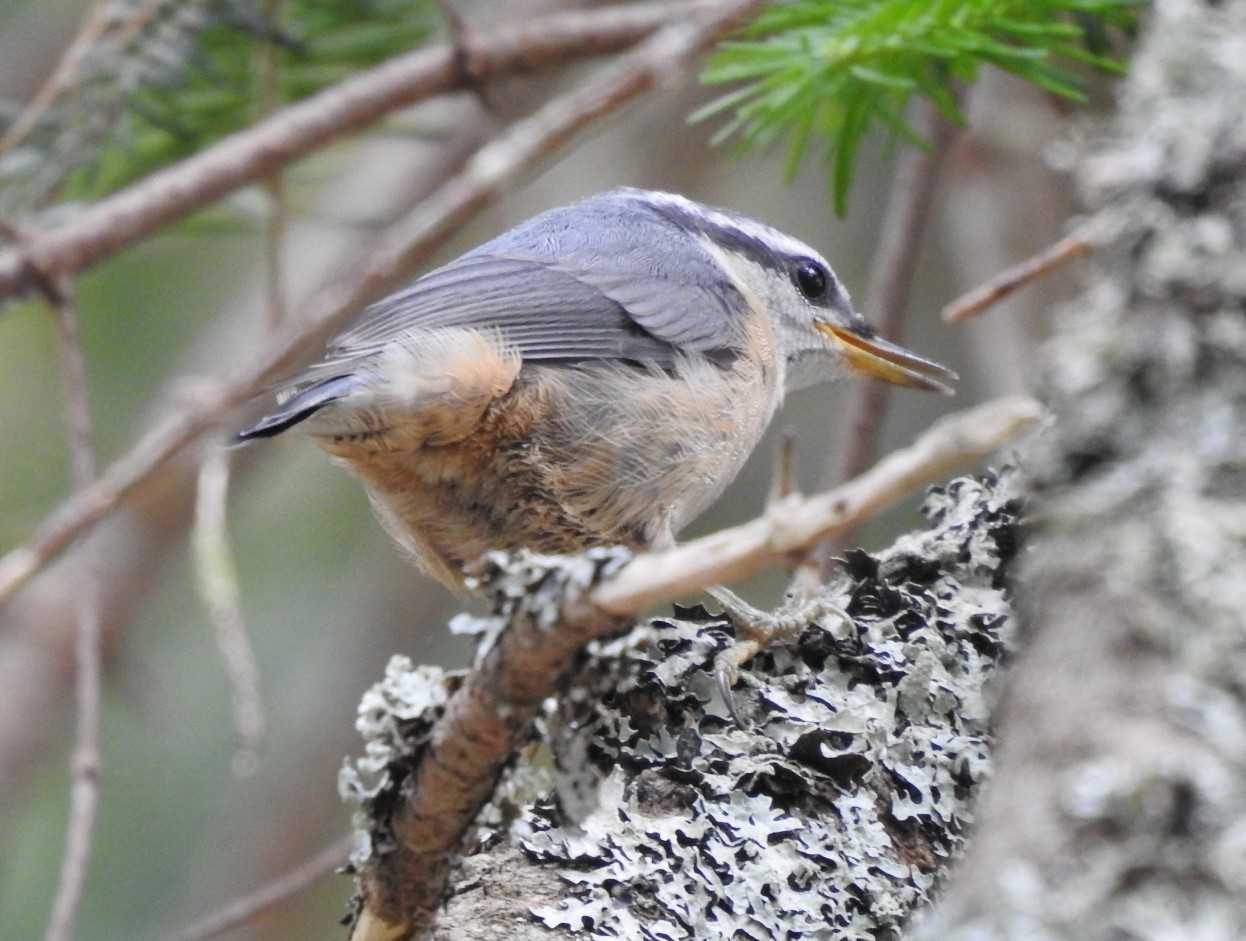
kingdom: Animalia
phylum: Chordata
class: Aves
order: Passeriformes
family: Sittidae
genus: Sitta
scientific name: Sitta canadensis
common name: Red-breasted nuthatch
